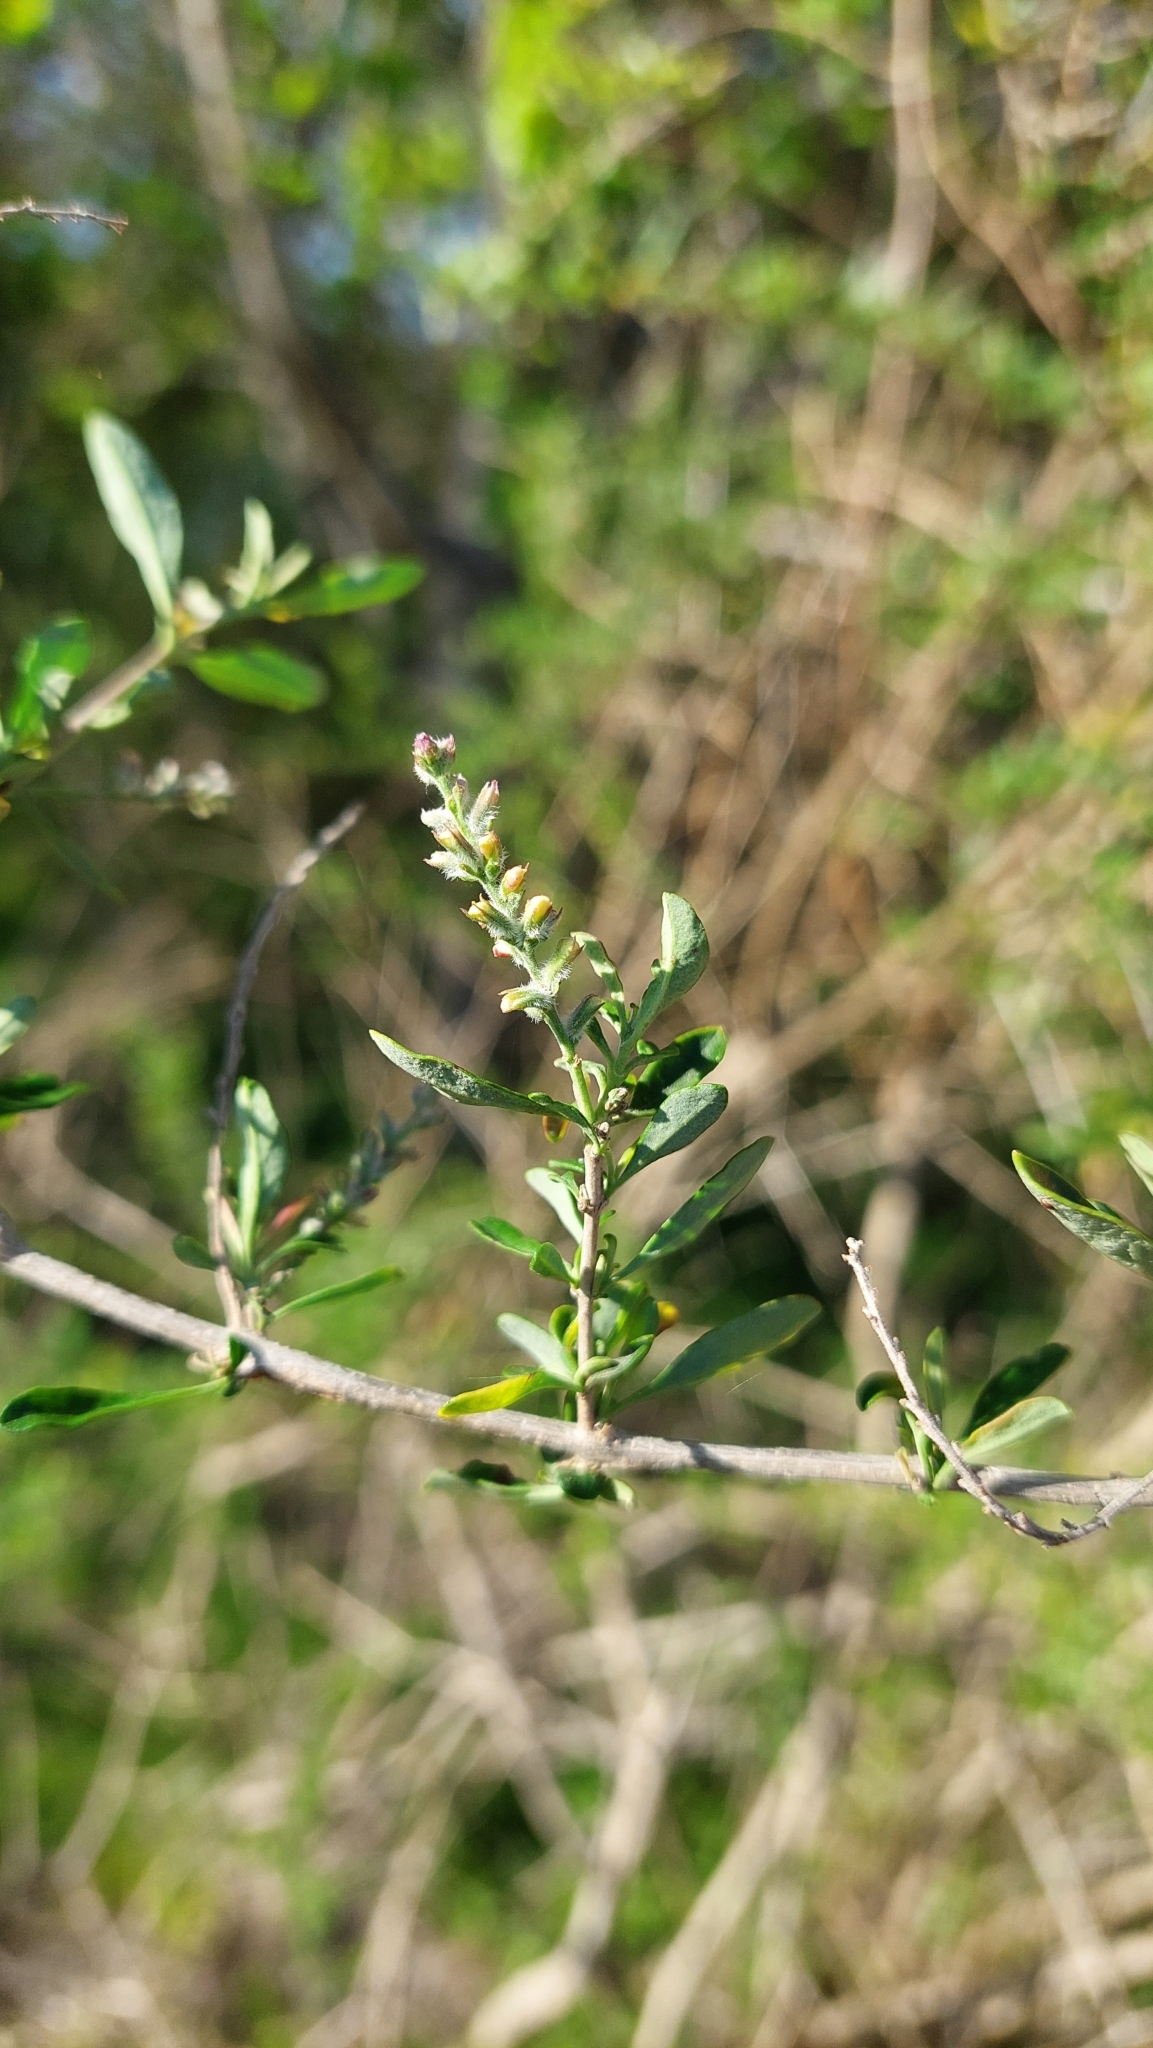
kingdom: Plantae
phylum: Tracheophyta
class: Magnoliopsida
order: Lamiales
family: Verbenaceae
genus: Aloysia
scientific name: Aloysia gratissima
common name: Common bee-brush
